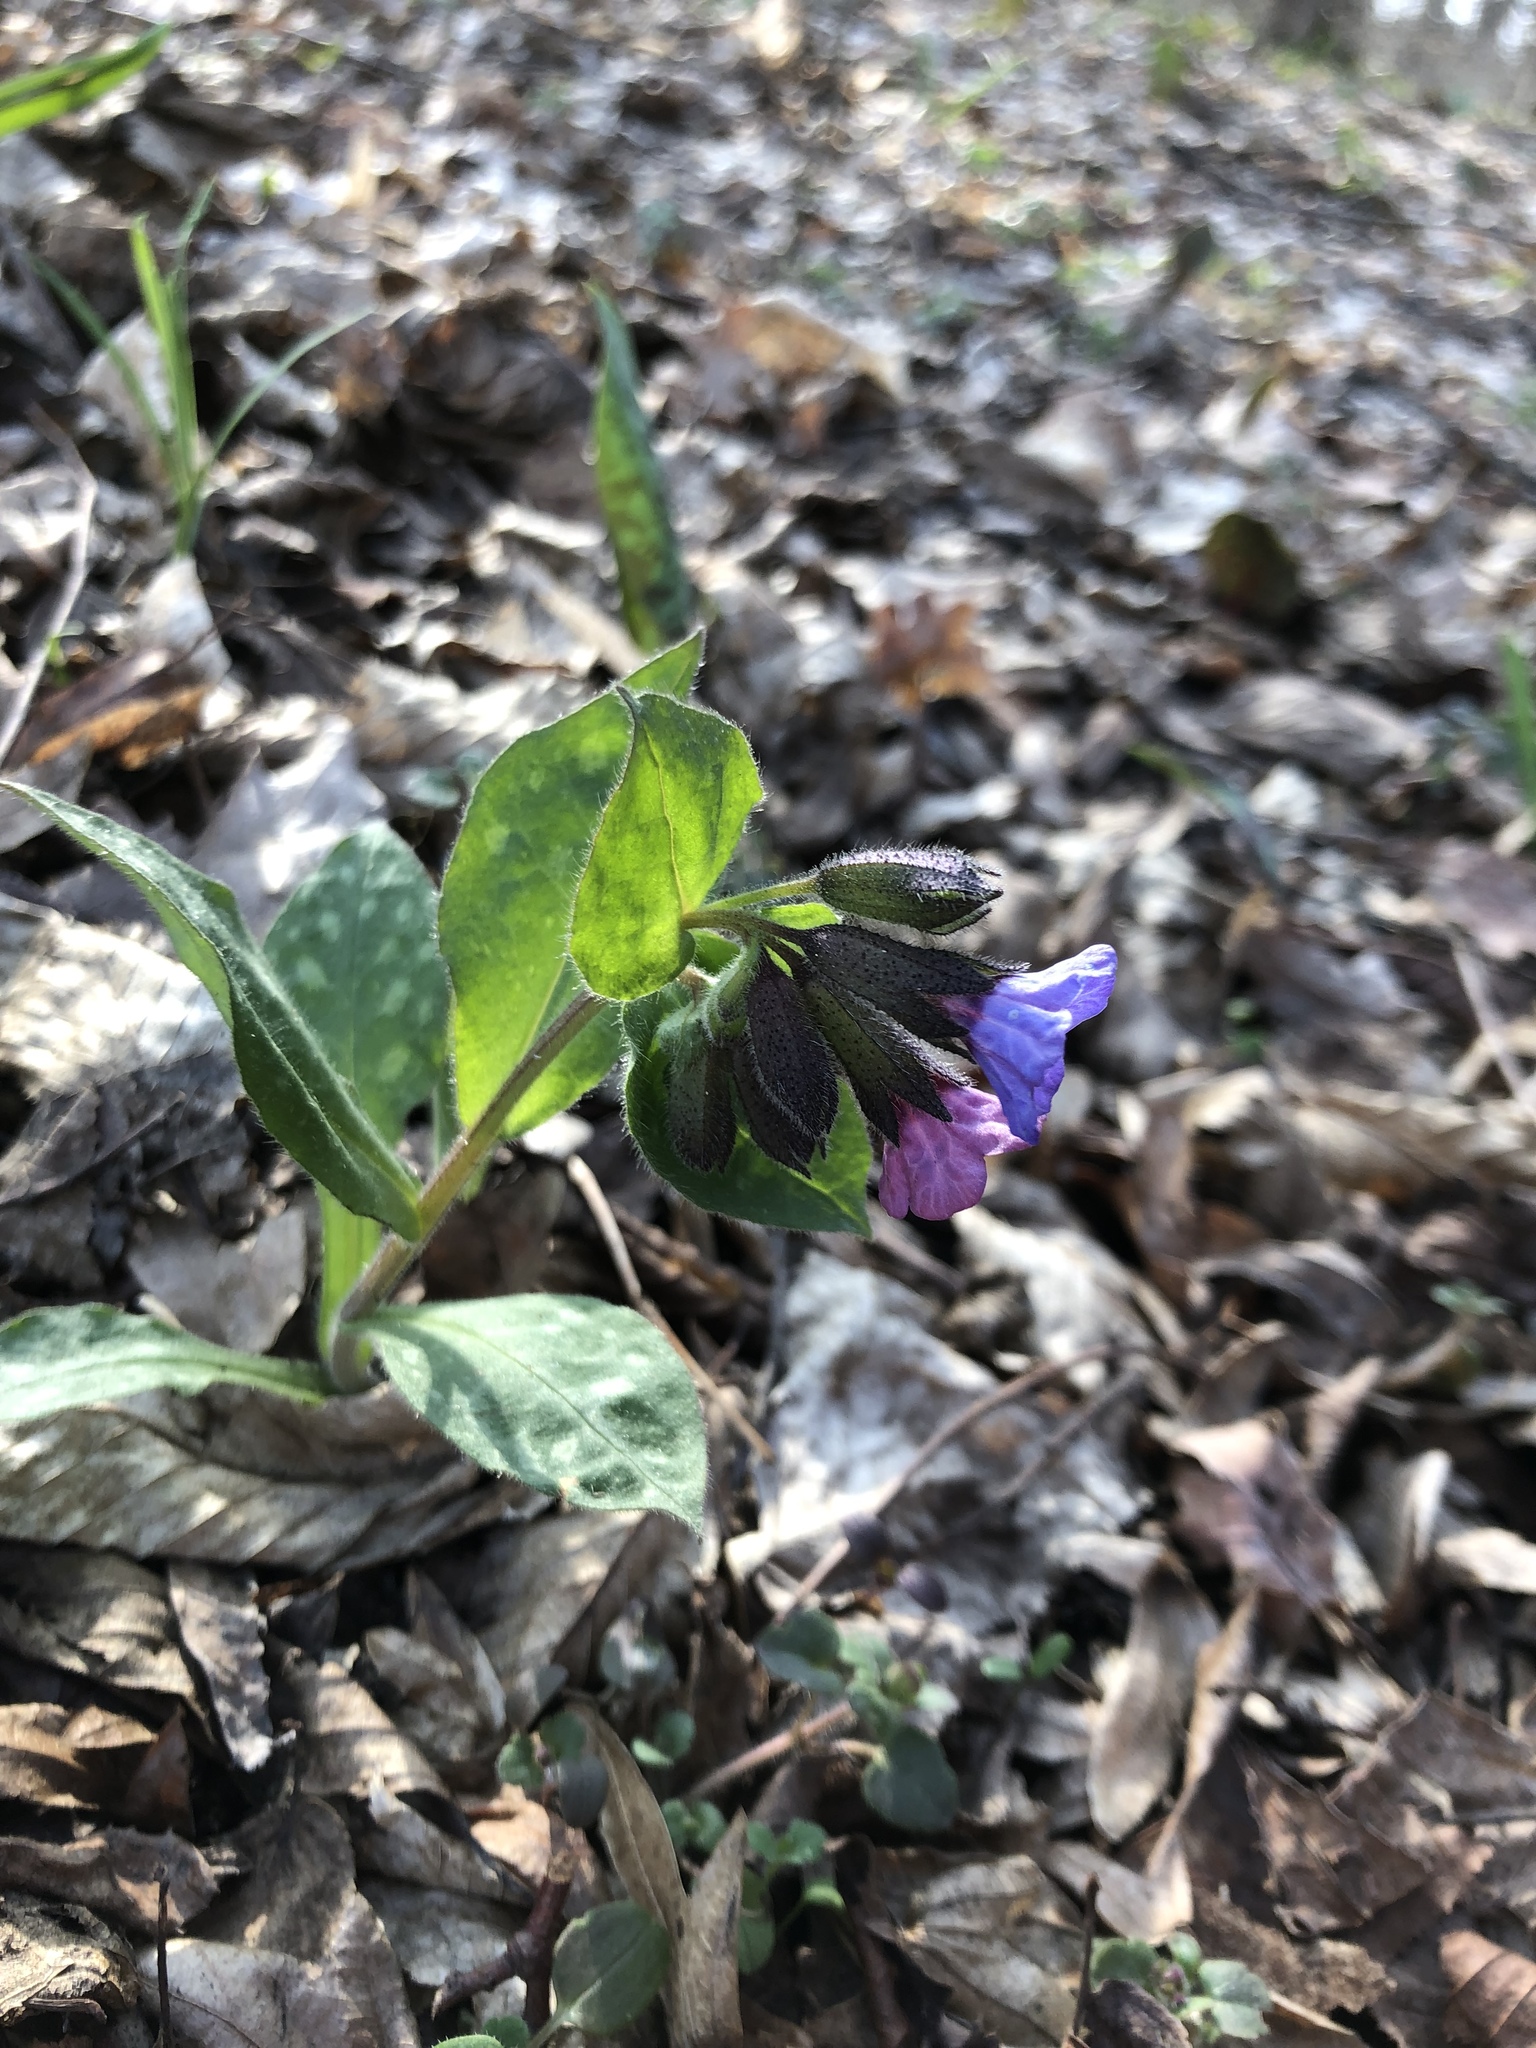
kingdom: Plantae
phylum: Tracheophyta
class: Magnoliopsida
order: Boraginales
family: Boraginaceae
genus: Pulmonaria
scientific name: Pulmonaria officinalis
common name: Lungwort
